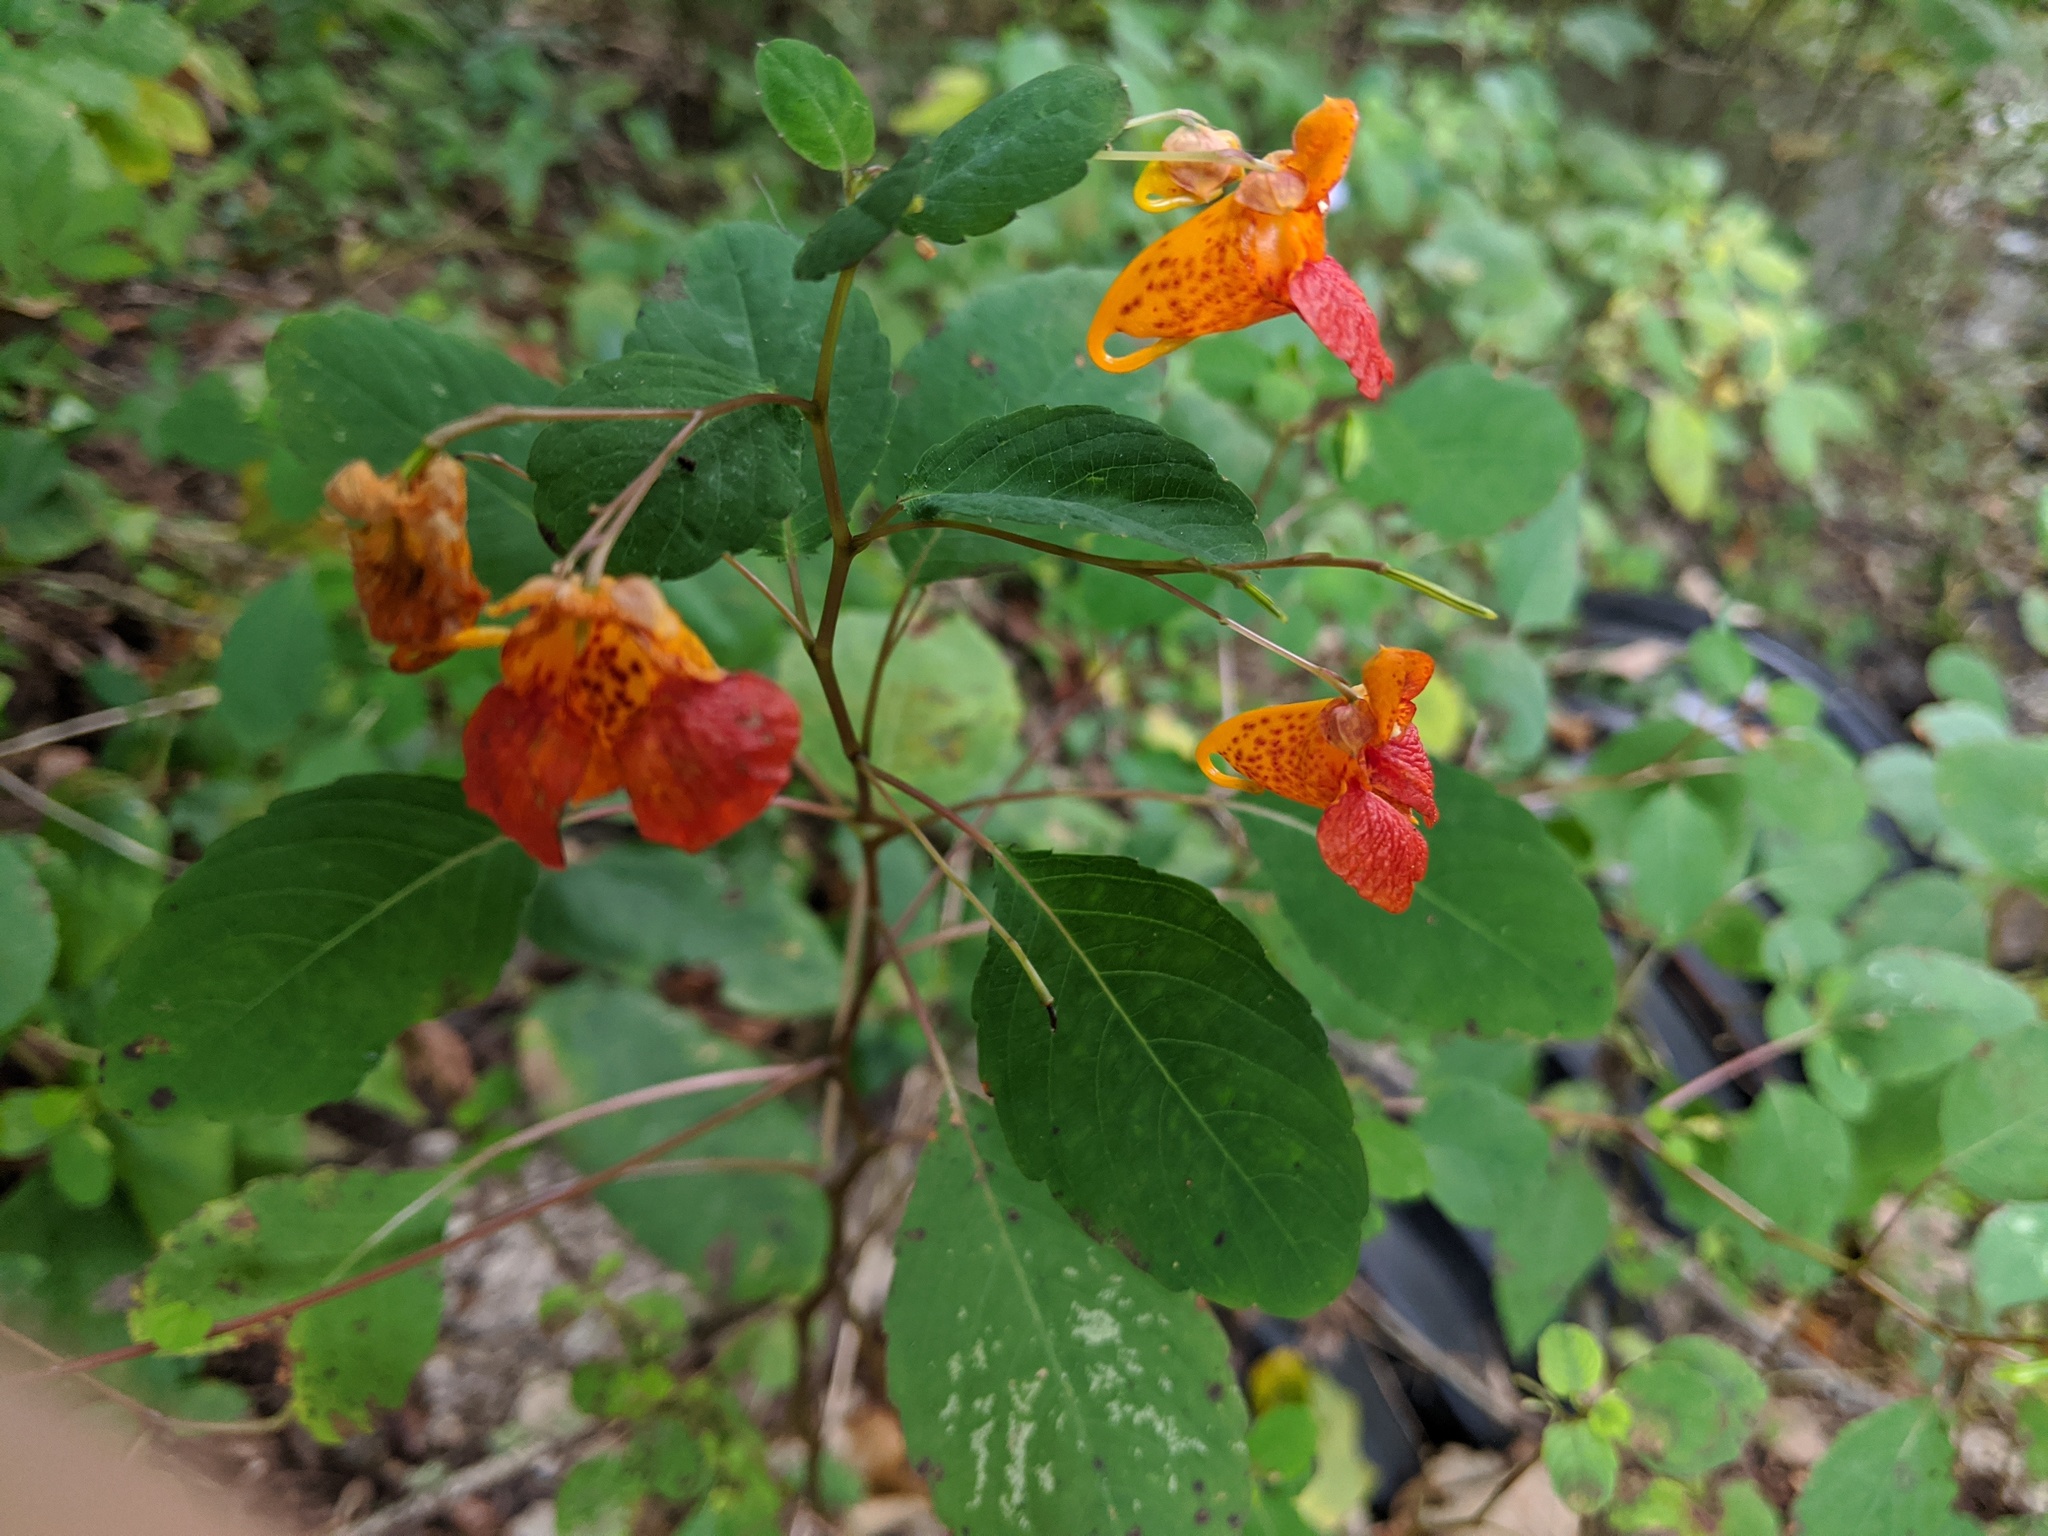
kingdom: Plantae
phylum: Tracheophyta
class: Magnoliopsida
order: Ericales
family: Balsaminaceae
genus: Impatiens
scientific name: Impatiens capensis
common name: Orange balsam
